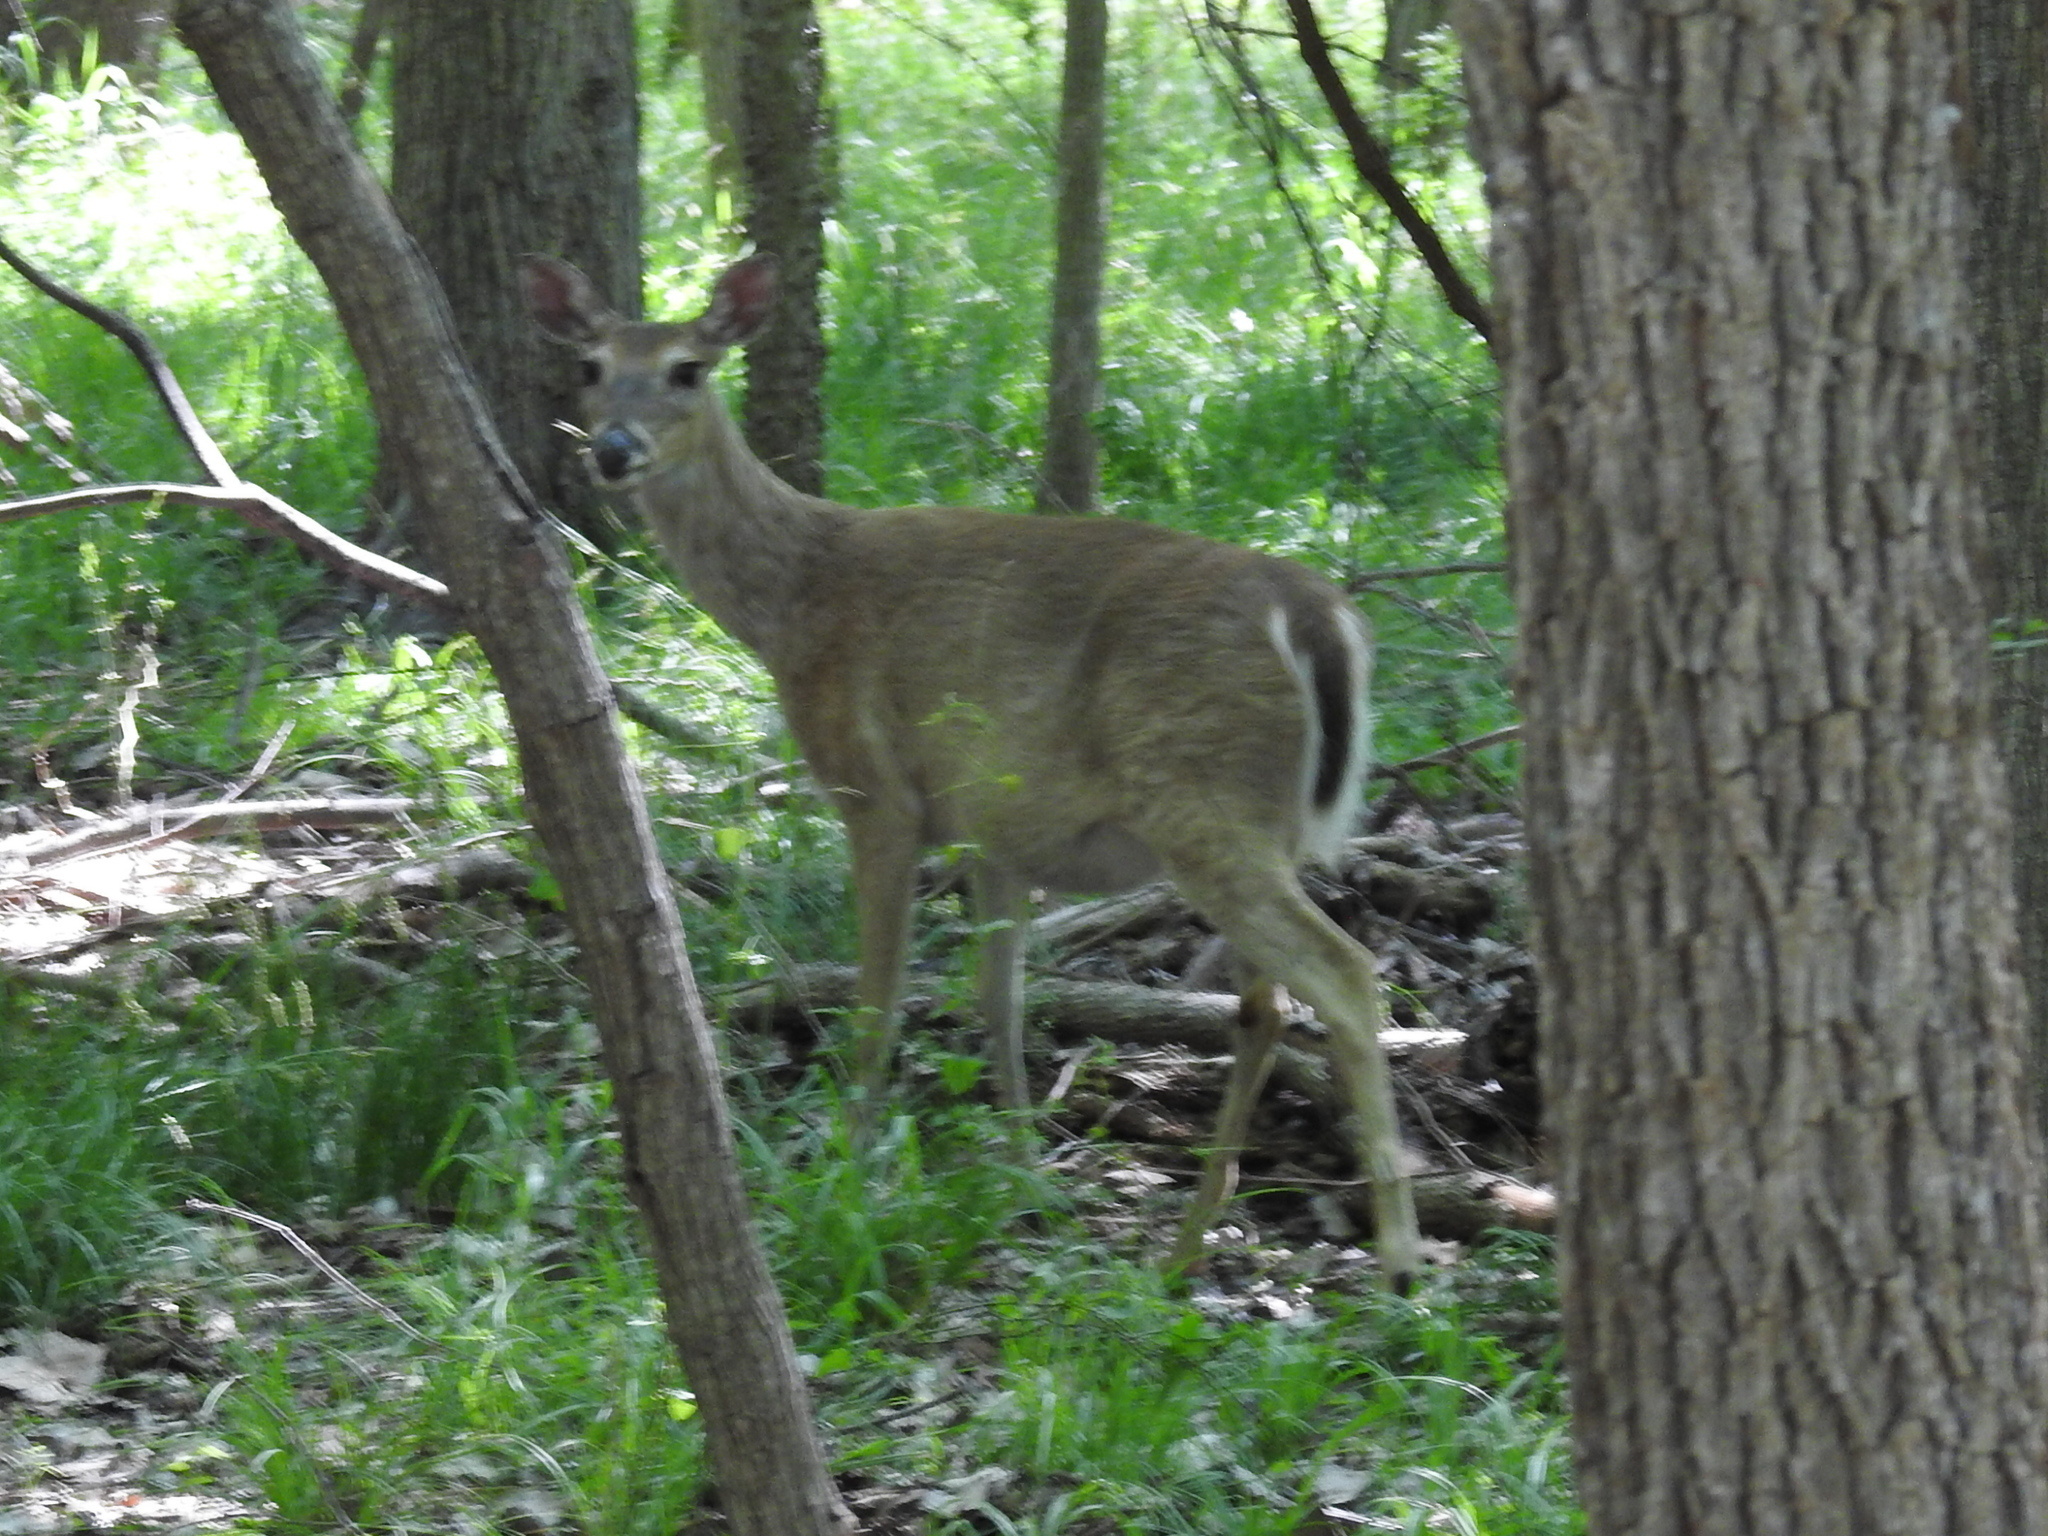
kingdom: Animalia
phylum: Chordata
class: Mammalia
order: Artiodactyla
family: Cervidae
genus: Odocoileus
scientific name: Odocoileus virginianus
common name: White-tailed deer
